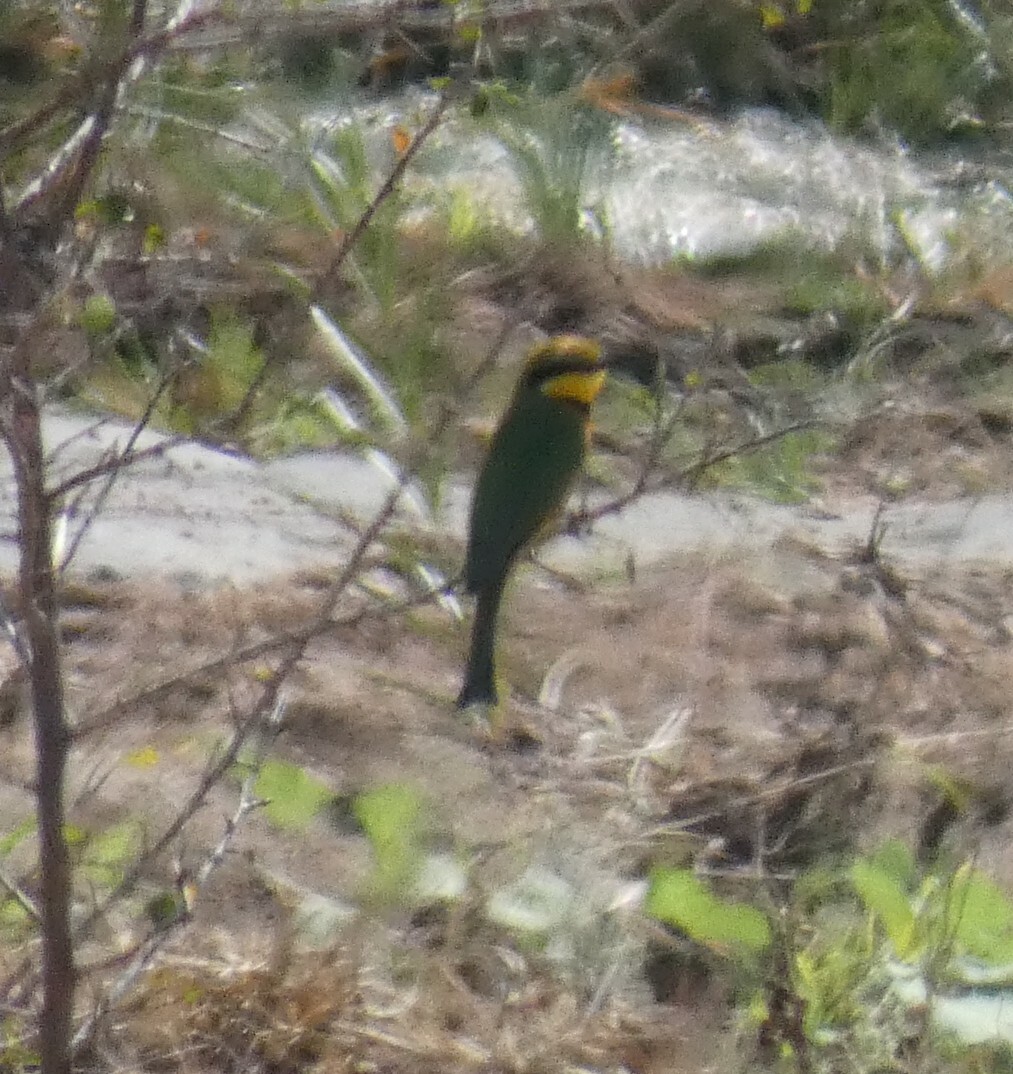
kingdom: Animalia
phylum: Chordata
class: Aves
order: Coraciiformes
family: Meropidae
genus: Merops
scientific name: Merops pusillus
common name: Little bee-eater
